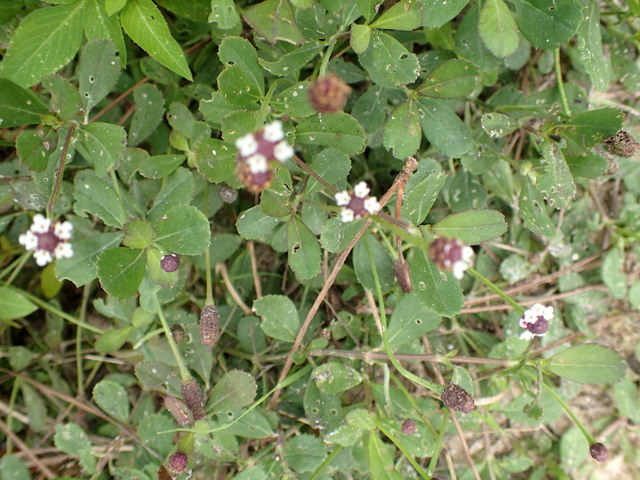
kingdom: Plantae
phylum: Tracheophyta
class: Magnoliopsida
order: Lamiales
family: Verbenaceae
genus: Phyla
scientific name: Phyla nodiflora
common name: Frogfruit
